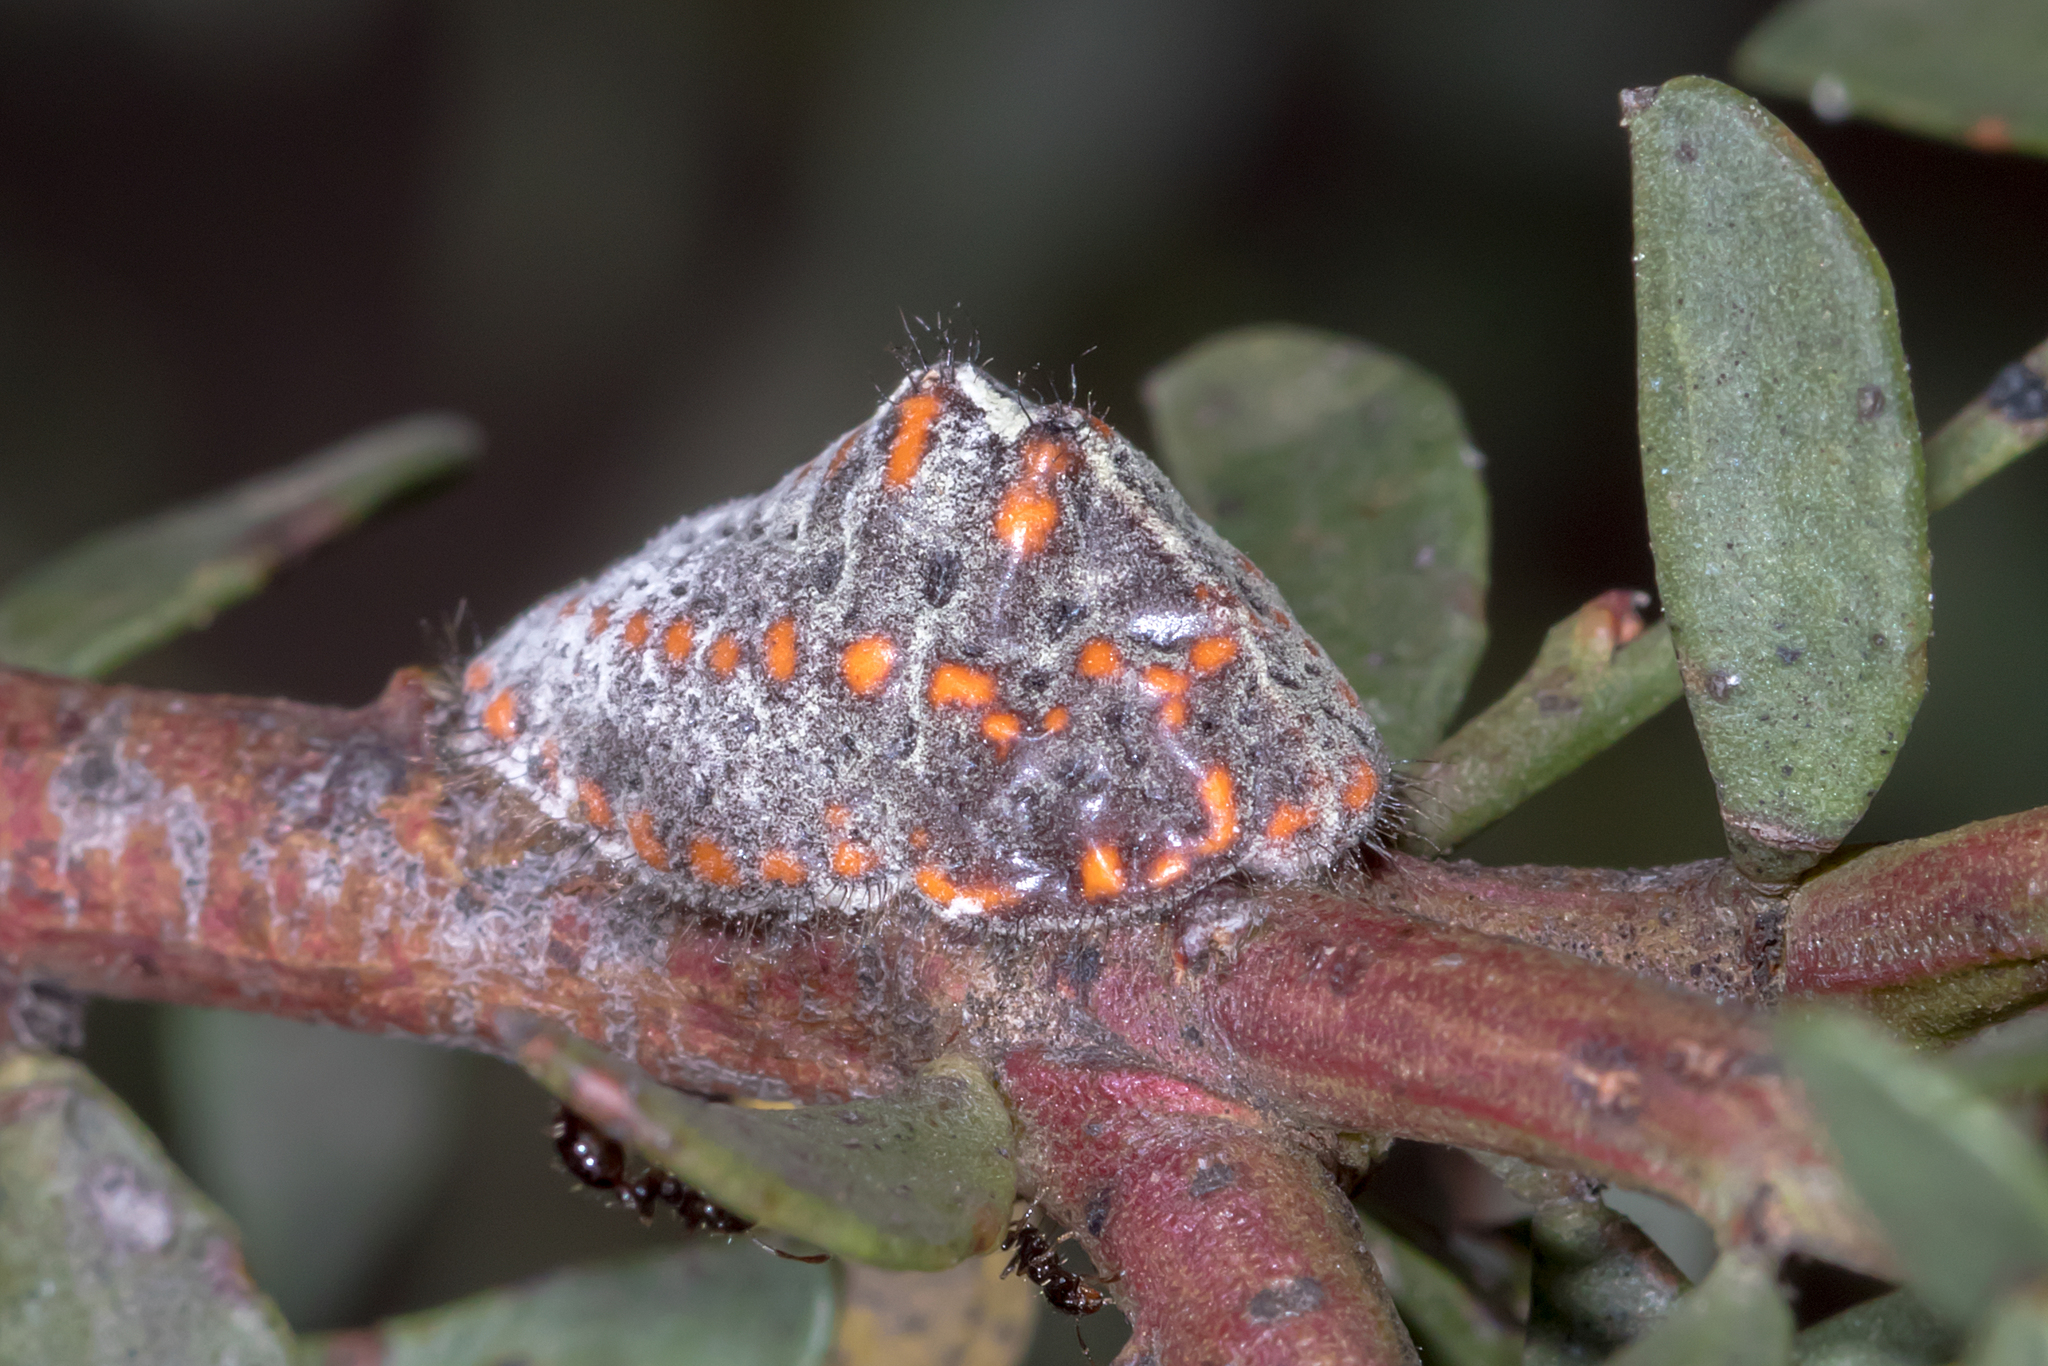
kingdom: Animalia
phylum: Arthropoda
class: Insecta
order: Hemiptera
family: Margarodidae
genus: Icerya
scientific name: Icerya
